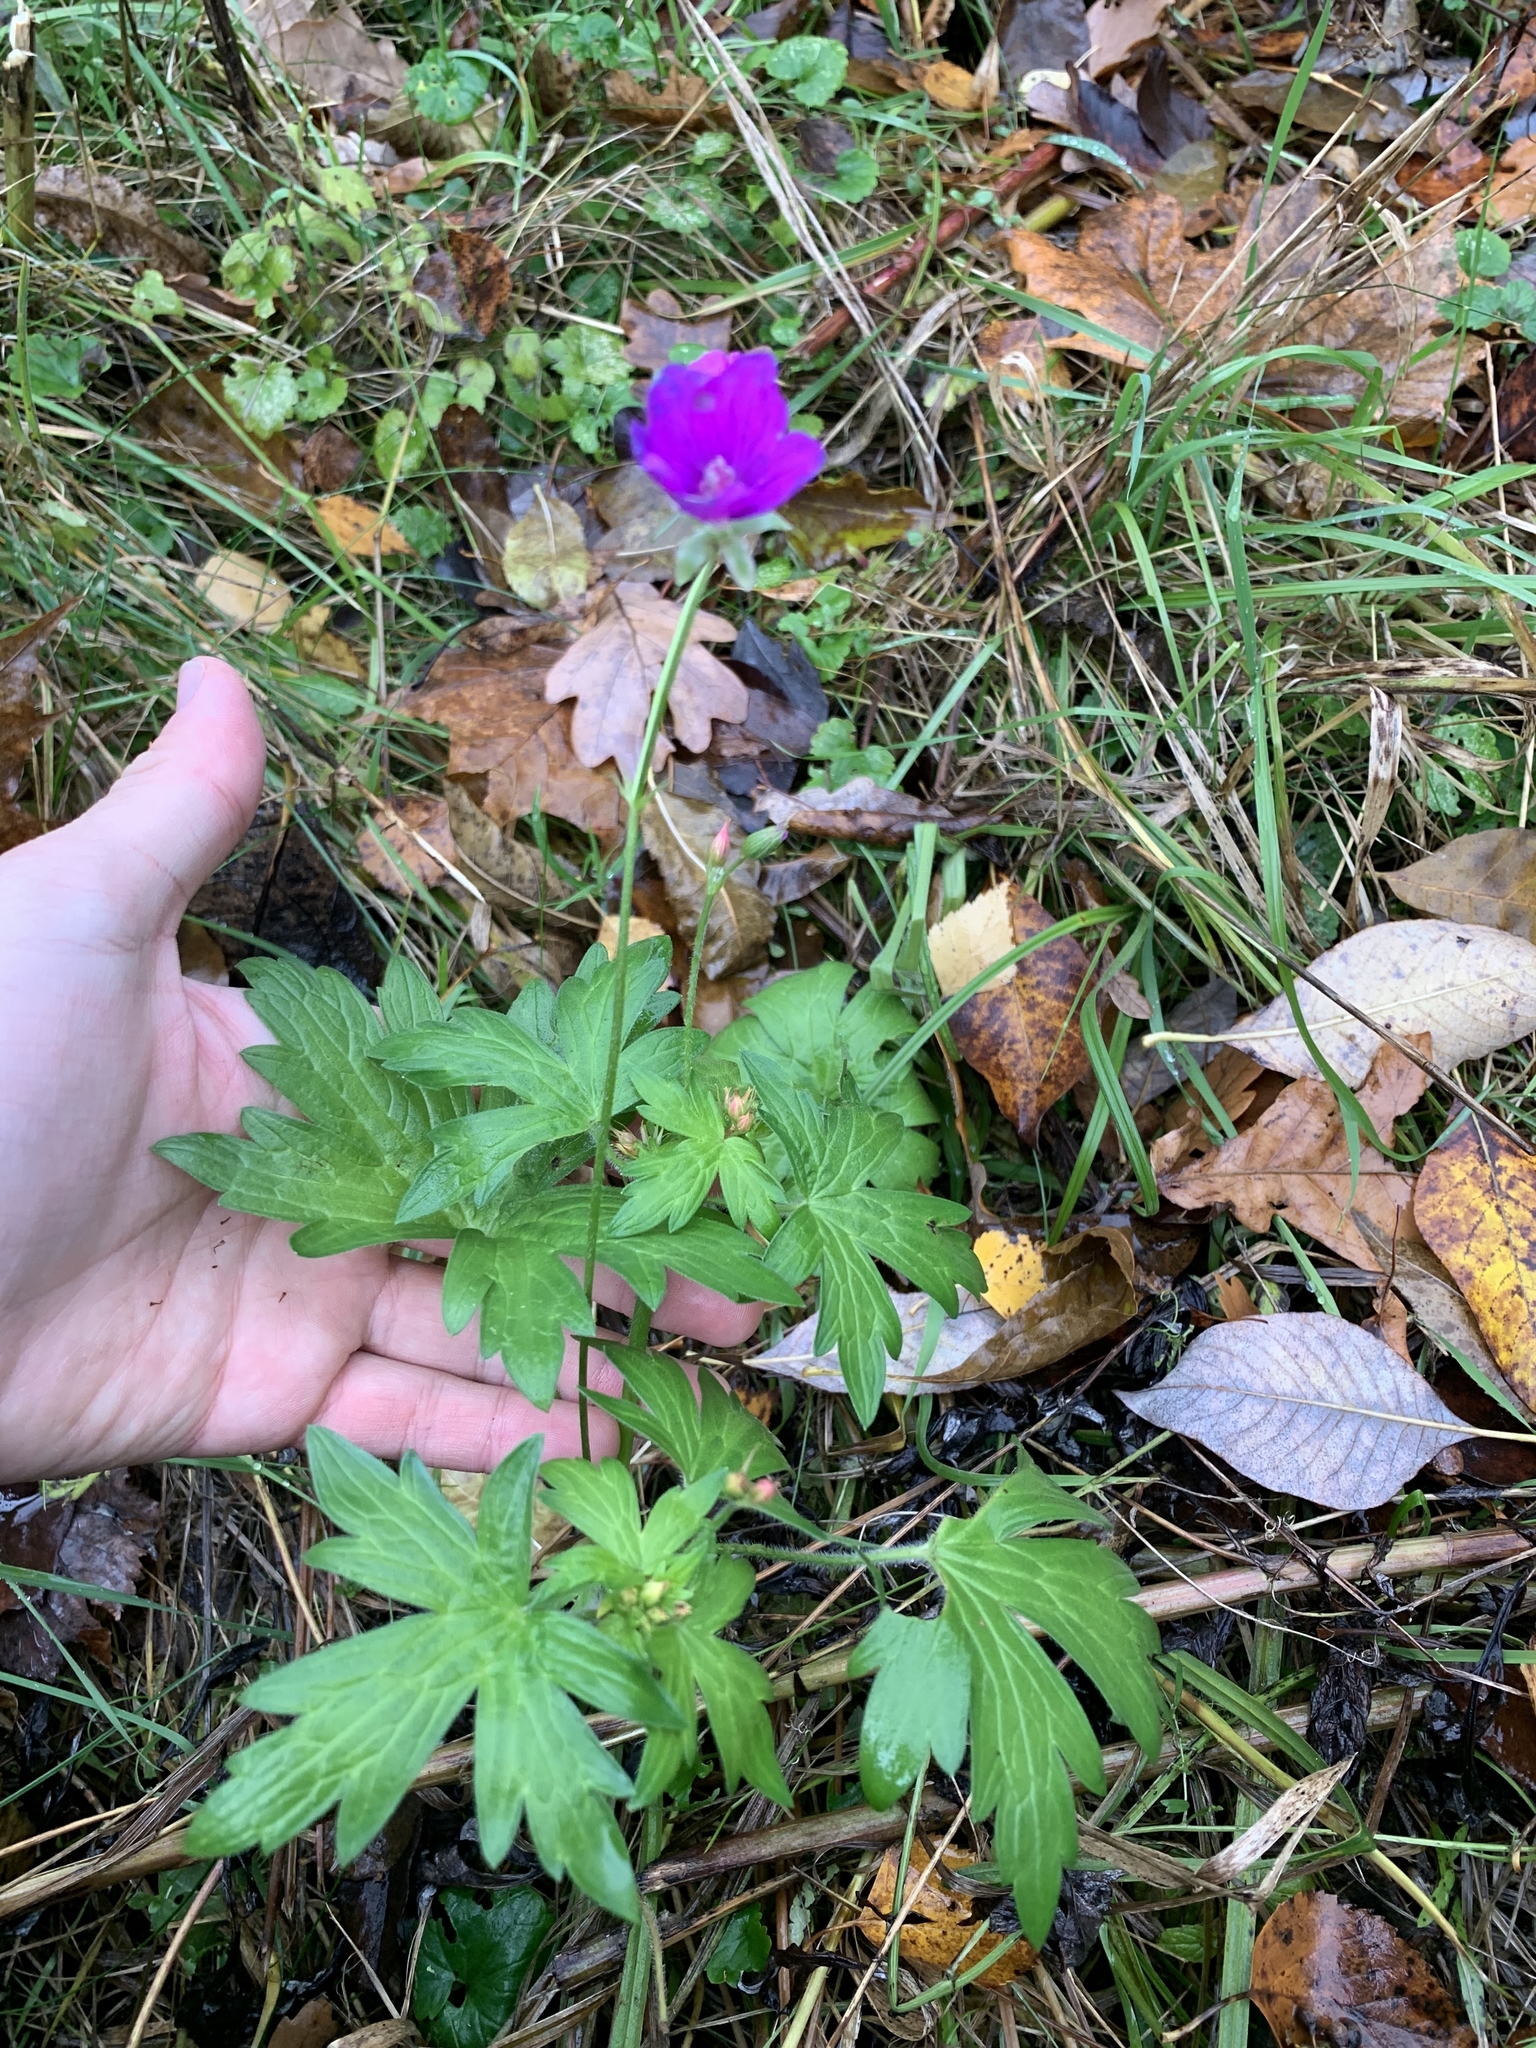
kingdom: Plantae
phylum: Tracheophyta
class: Magnoliopsida
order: Geraniales
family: Geraniaceae
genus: Geranium
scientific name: Geranium palustre
